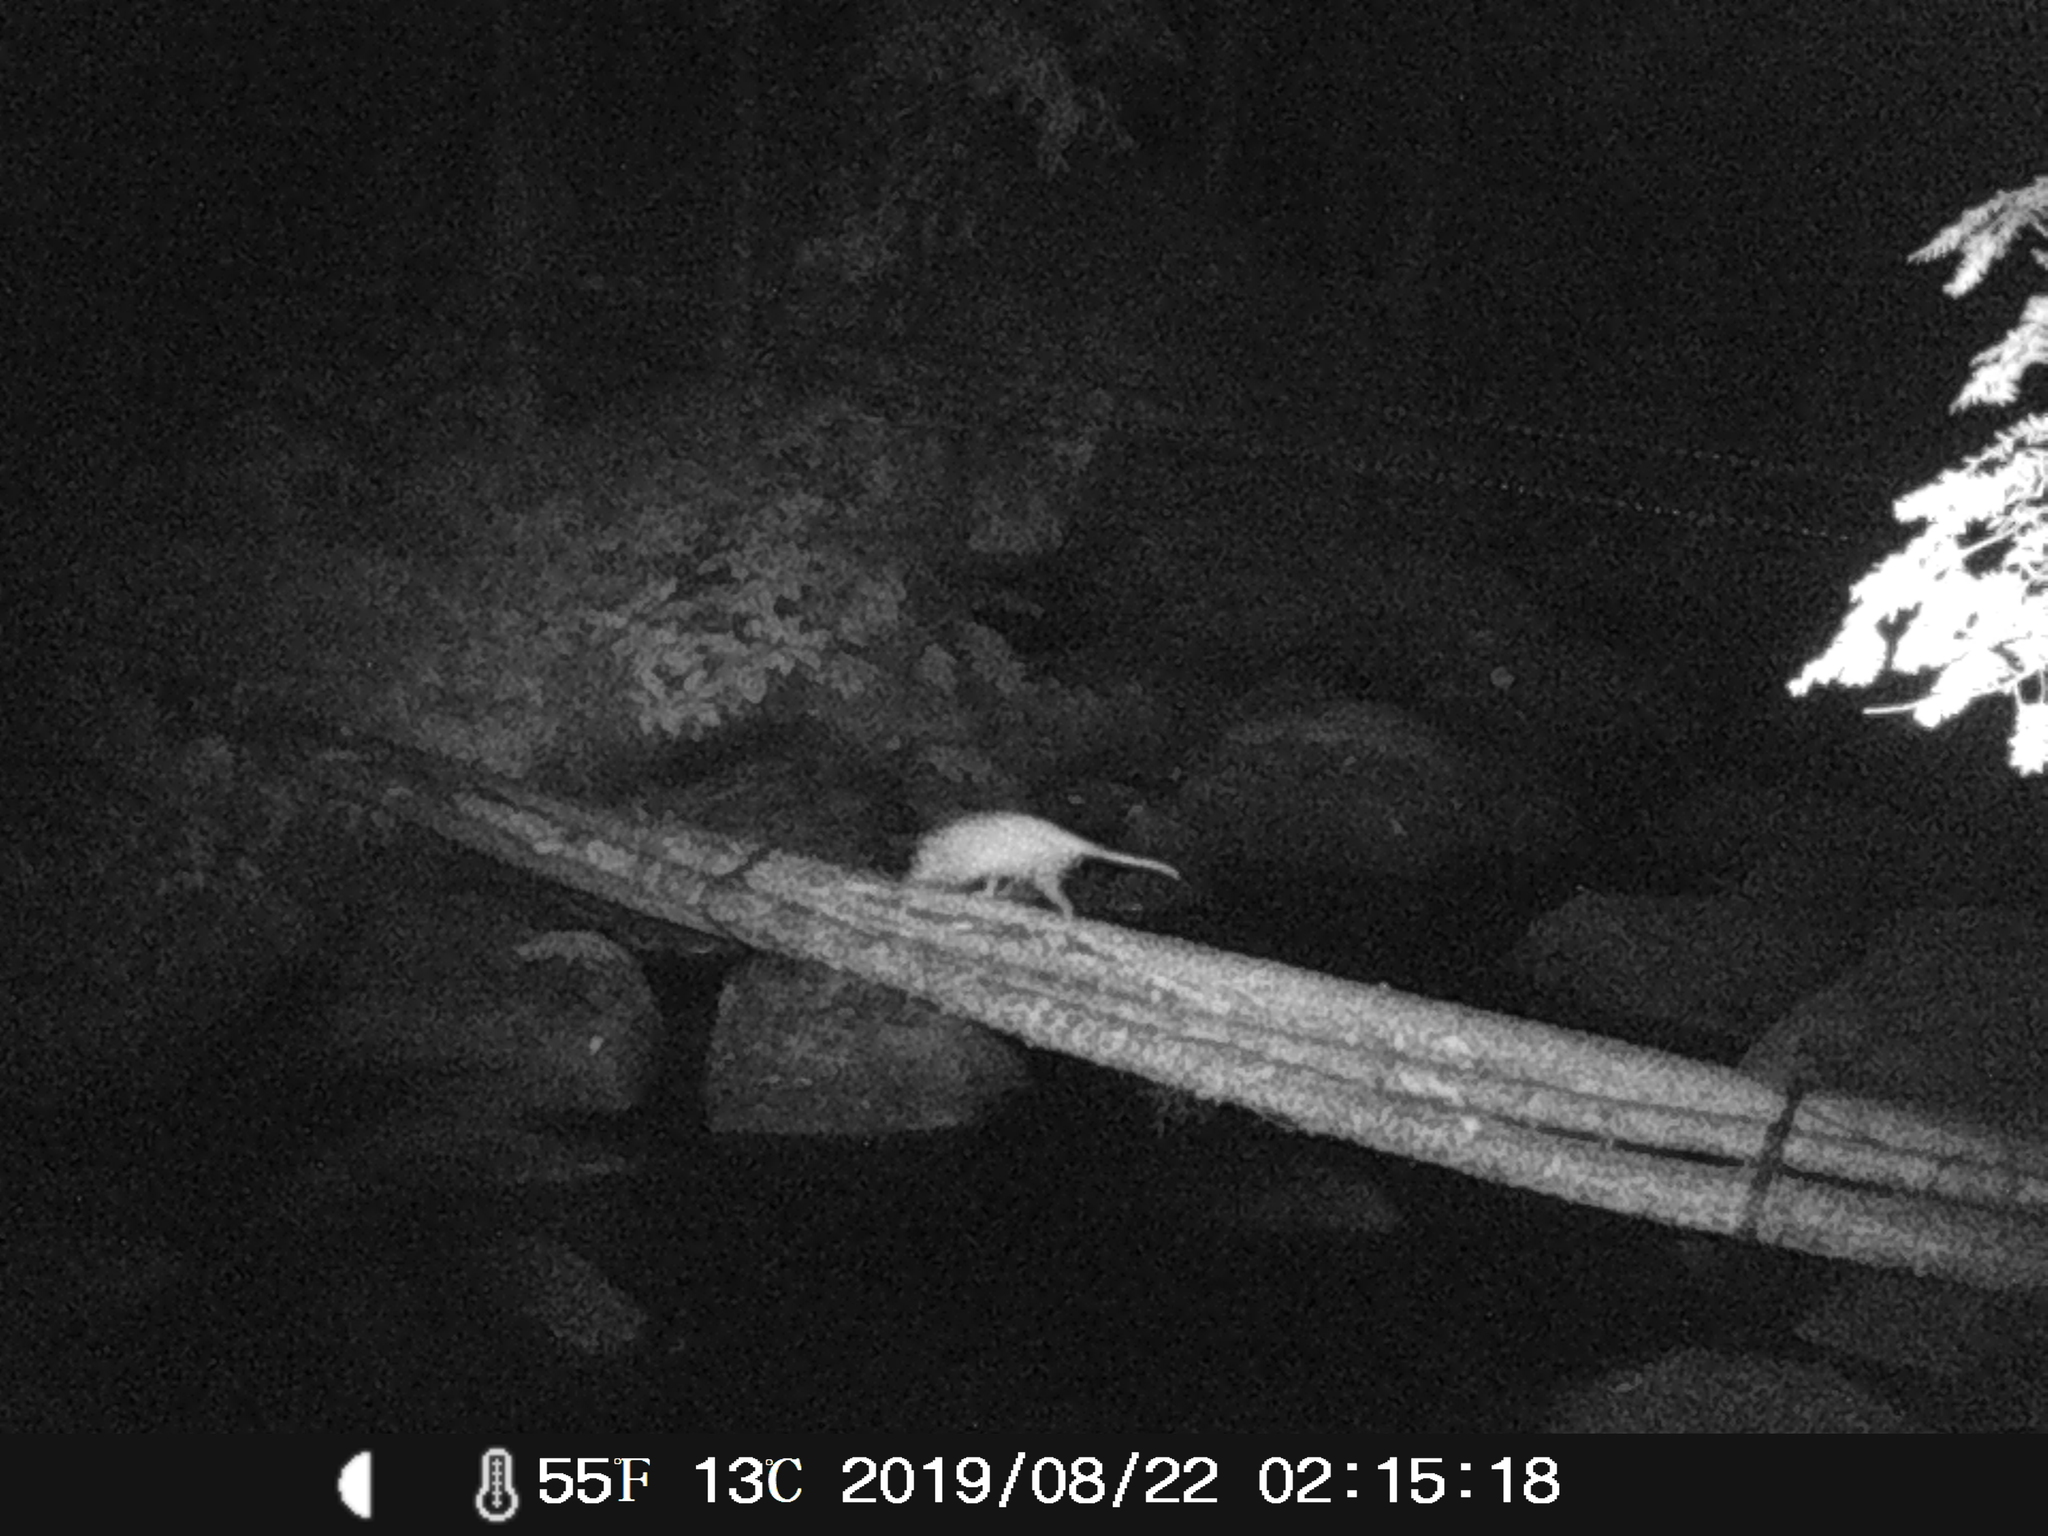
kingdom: Animalia
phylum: Chordata
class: Mammalia
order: Didelphimorphia
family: Didelphidae
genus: Didelphis
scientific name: Didelphis virginiana
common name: Virginia opossum
